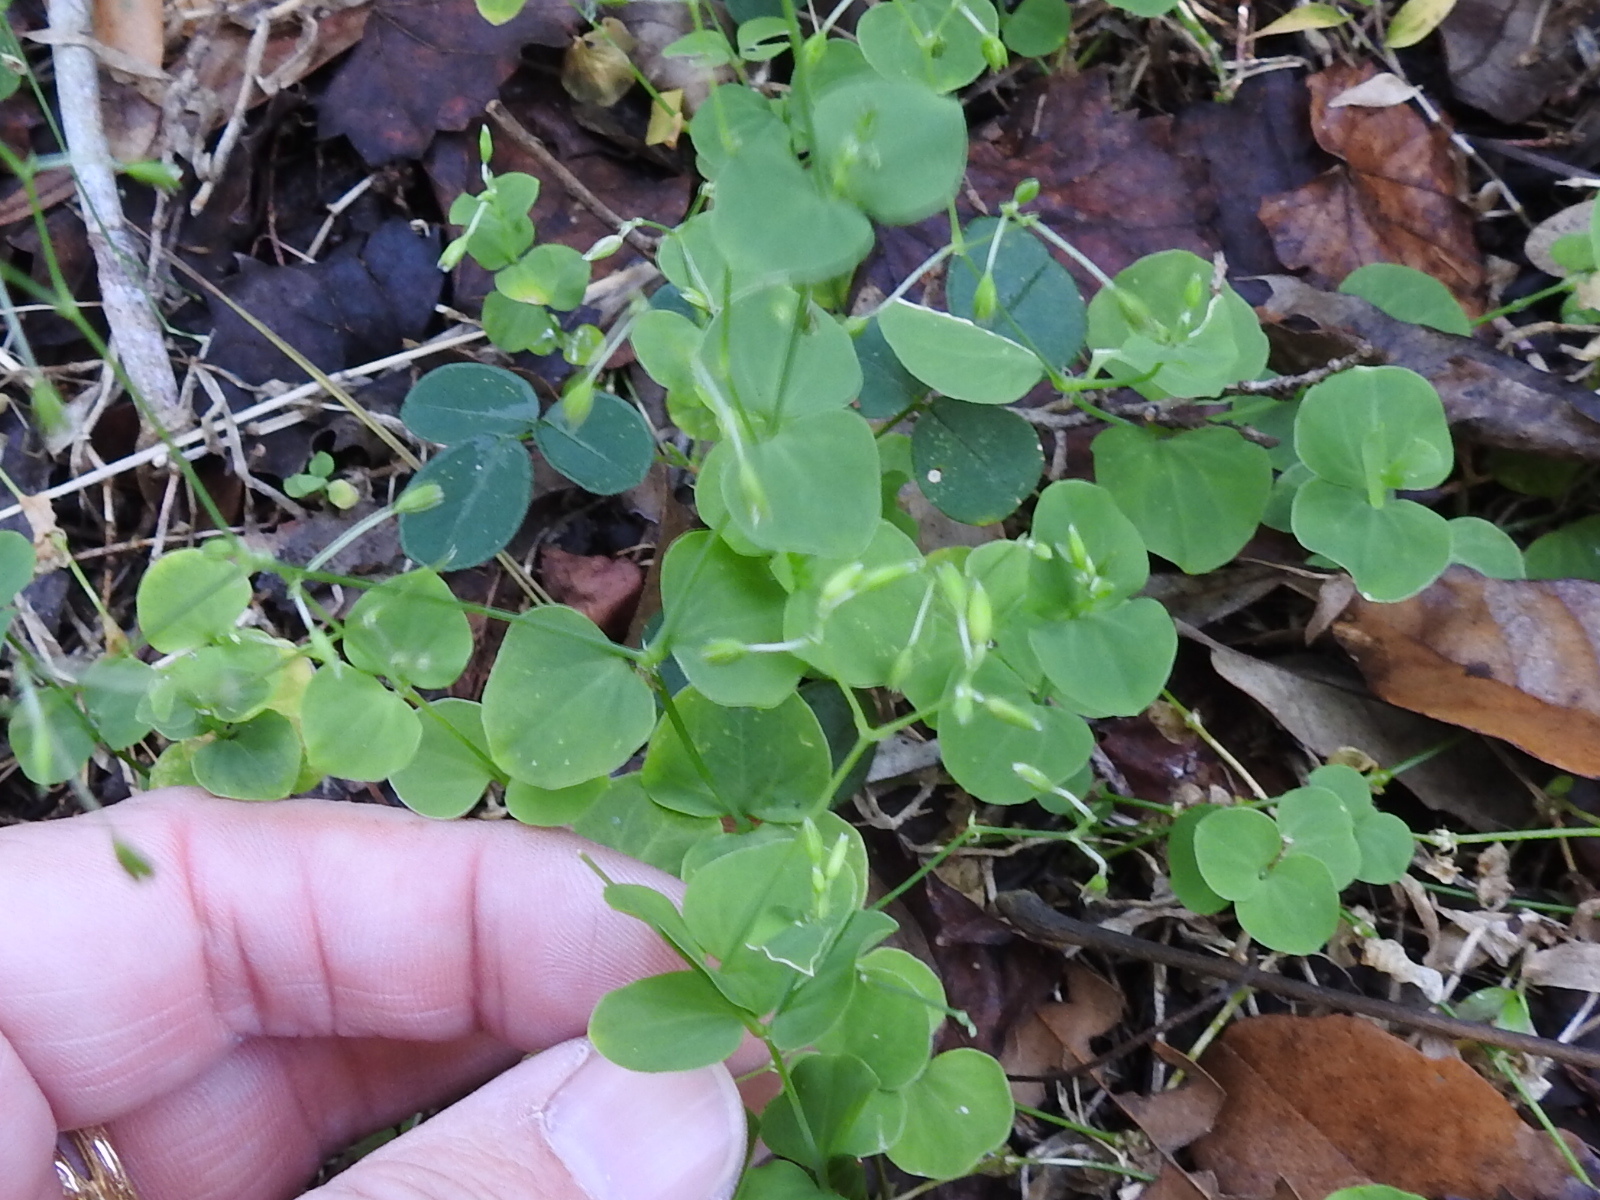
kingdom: Plantae
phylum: Tracheophyta
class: Magnoliopsida
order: Caryophyllales
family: Caryophyllaceae
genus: Drymaria
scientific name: Drymaria cordata
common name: Whitesnow
